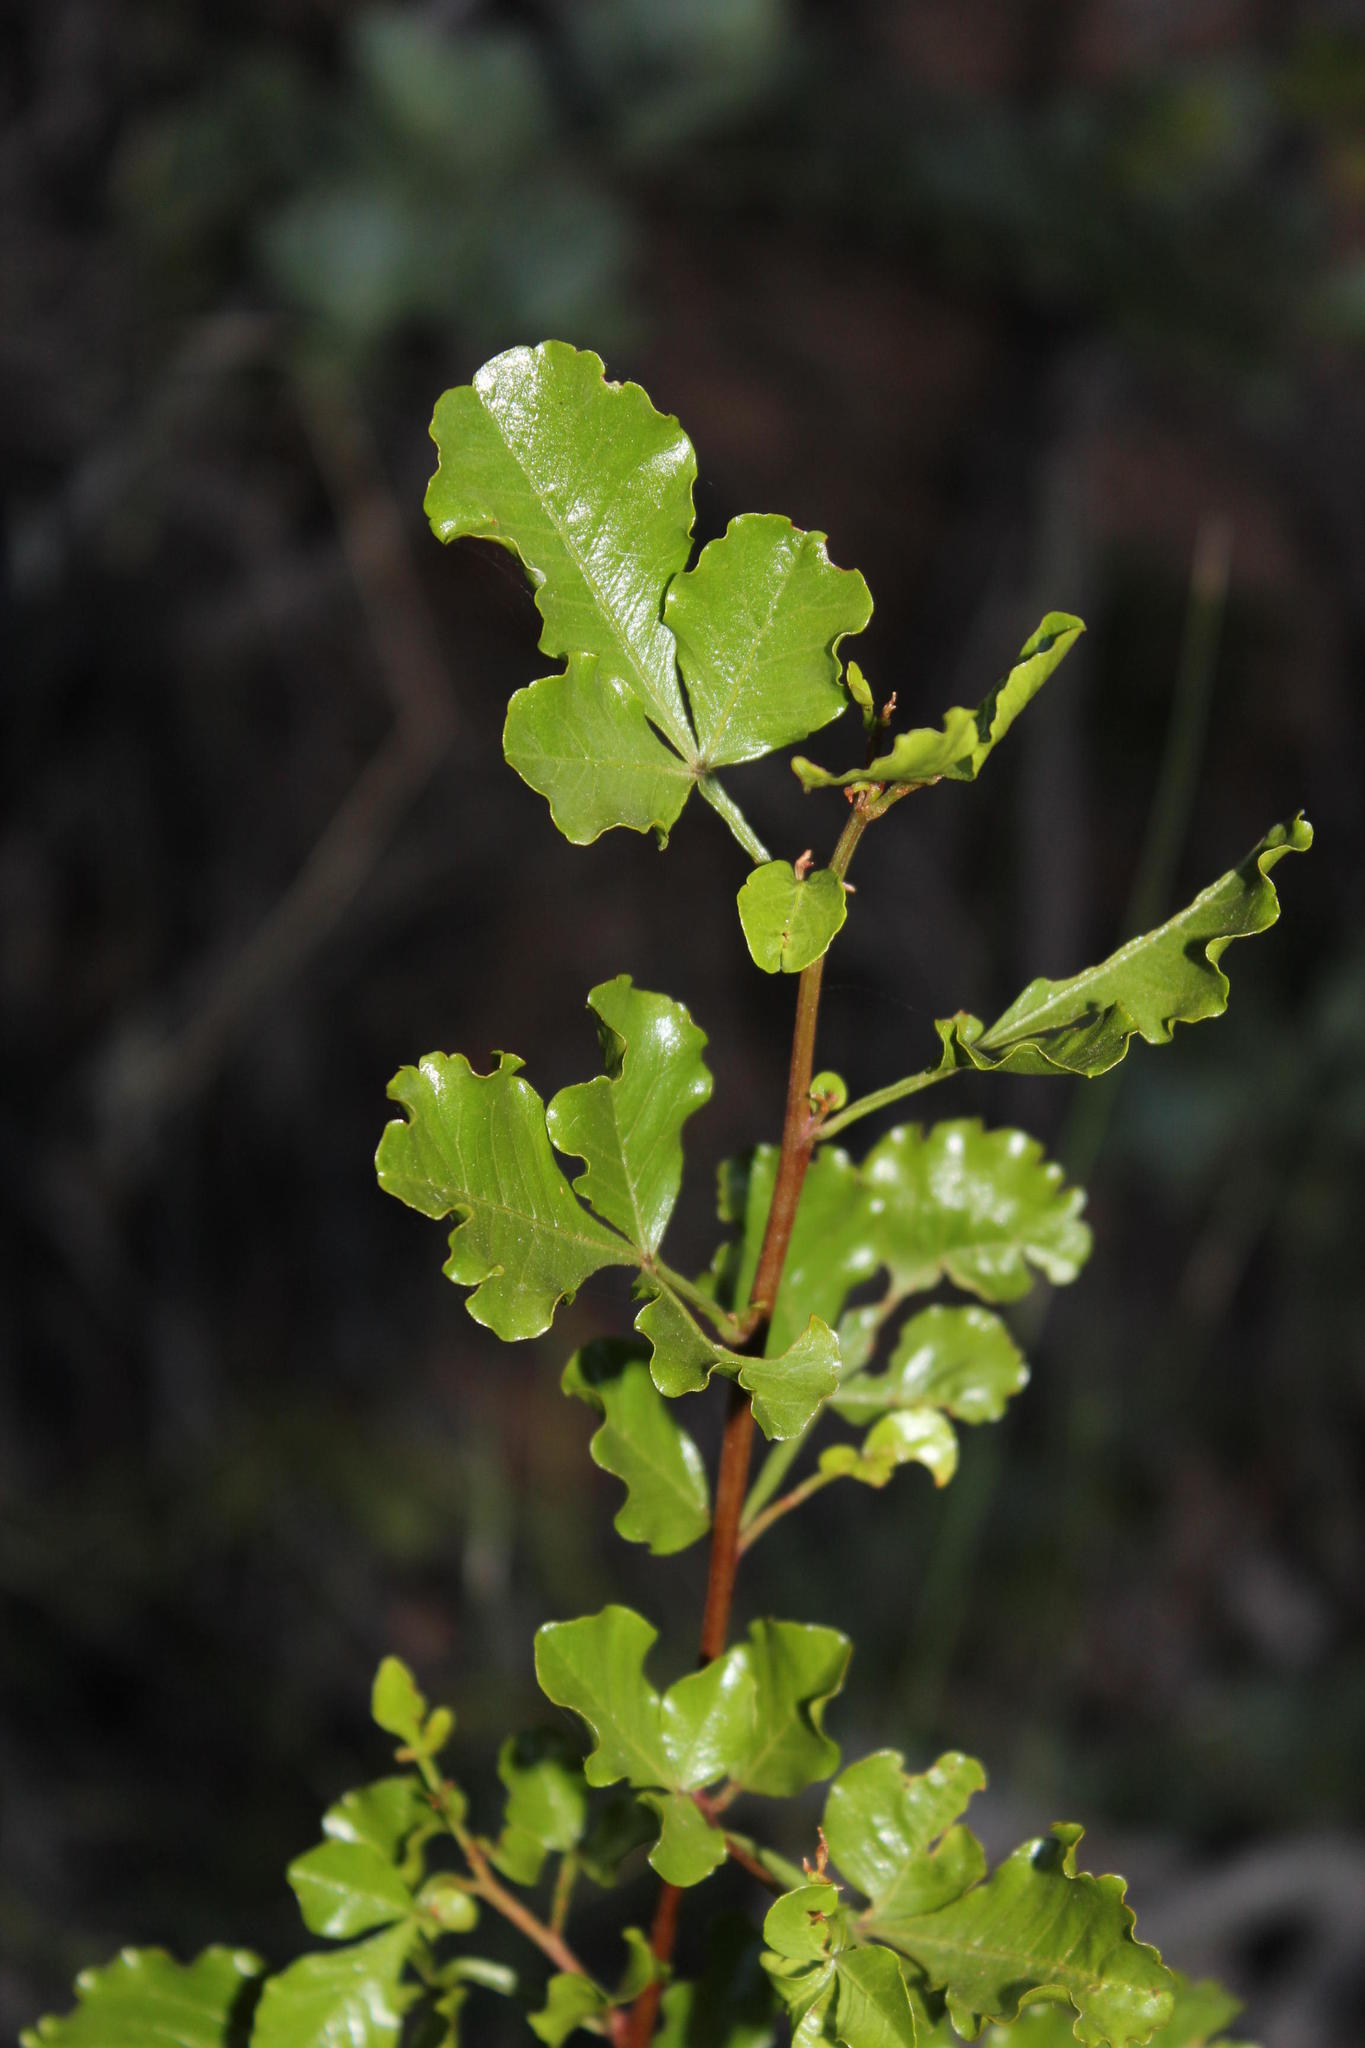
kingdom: Plantae
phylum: Tracheophyta
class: Magnoliopsida
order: Sapindales
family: Anacardiaceae
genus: Searsia
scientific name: Searsia undulata
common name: Namaqua kunibush
